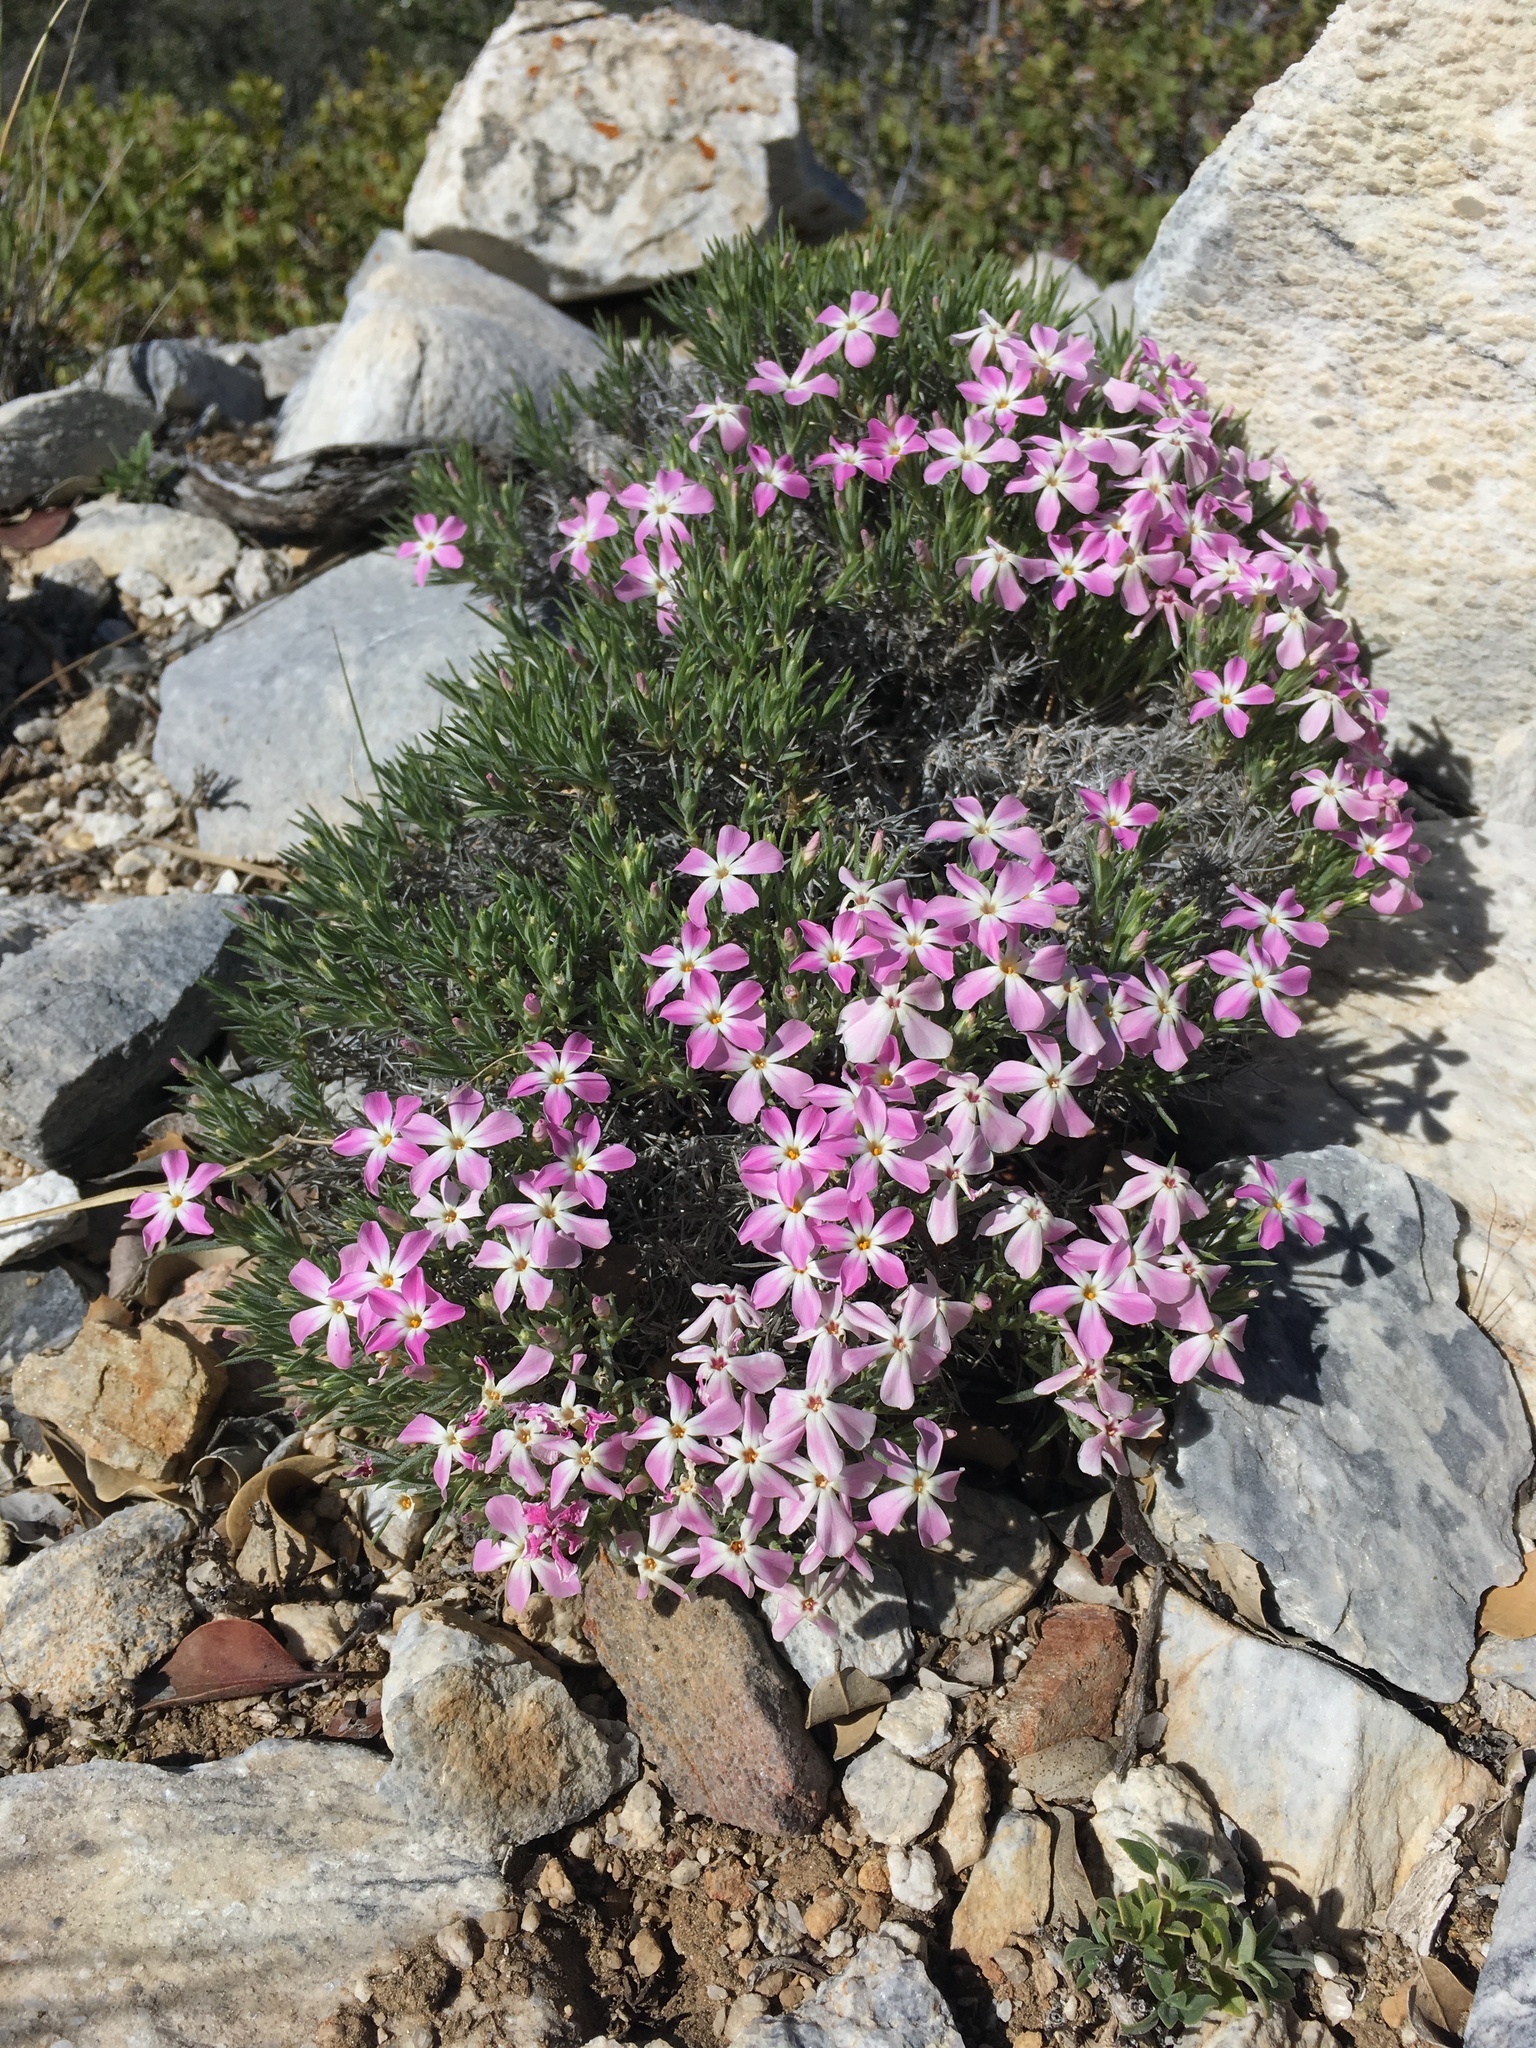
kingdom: Plantae
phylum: Tracheophyta
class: Magnoliopsida
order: Ericales
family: Polemoniaceae
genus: Phlox
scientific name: Phlox austromontana
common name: Desert phlox
